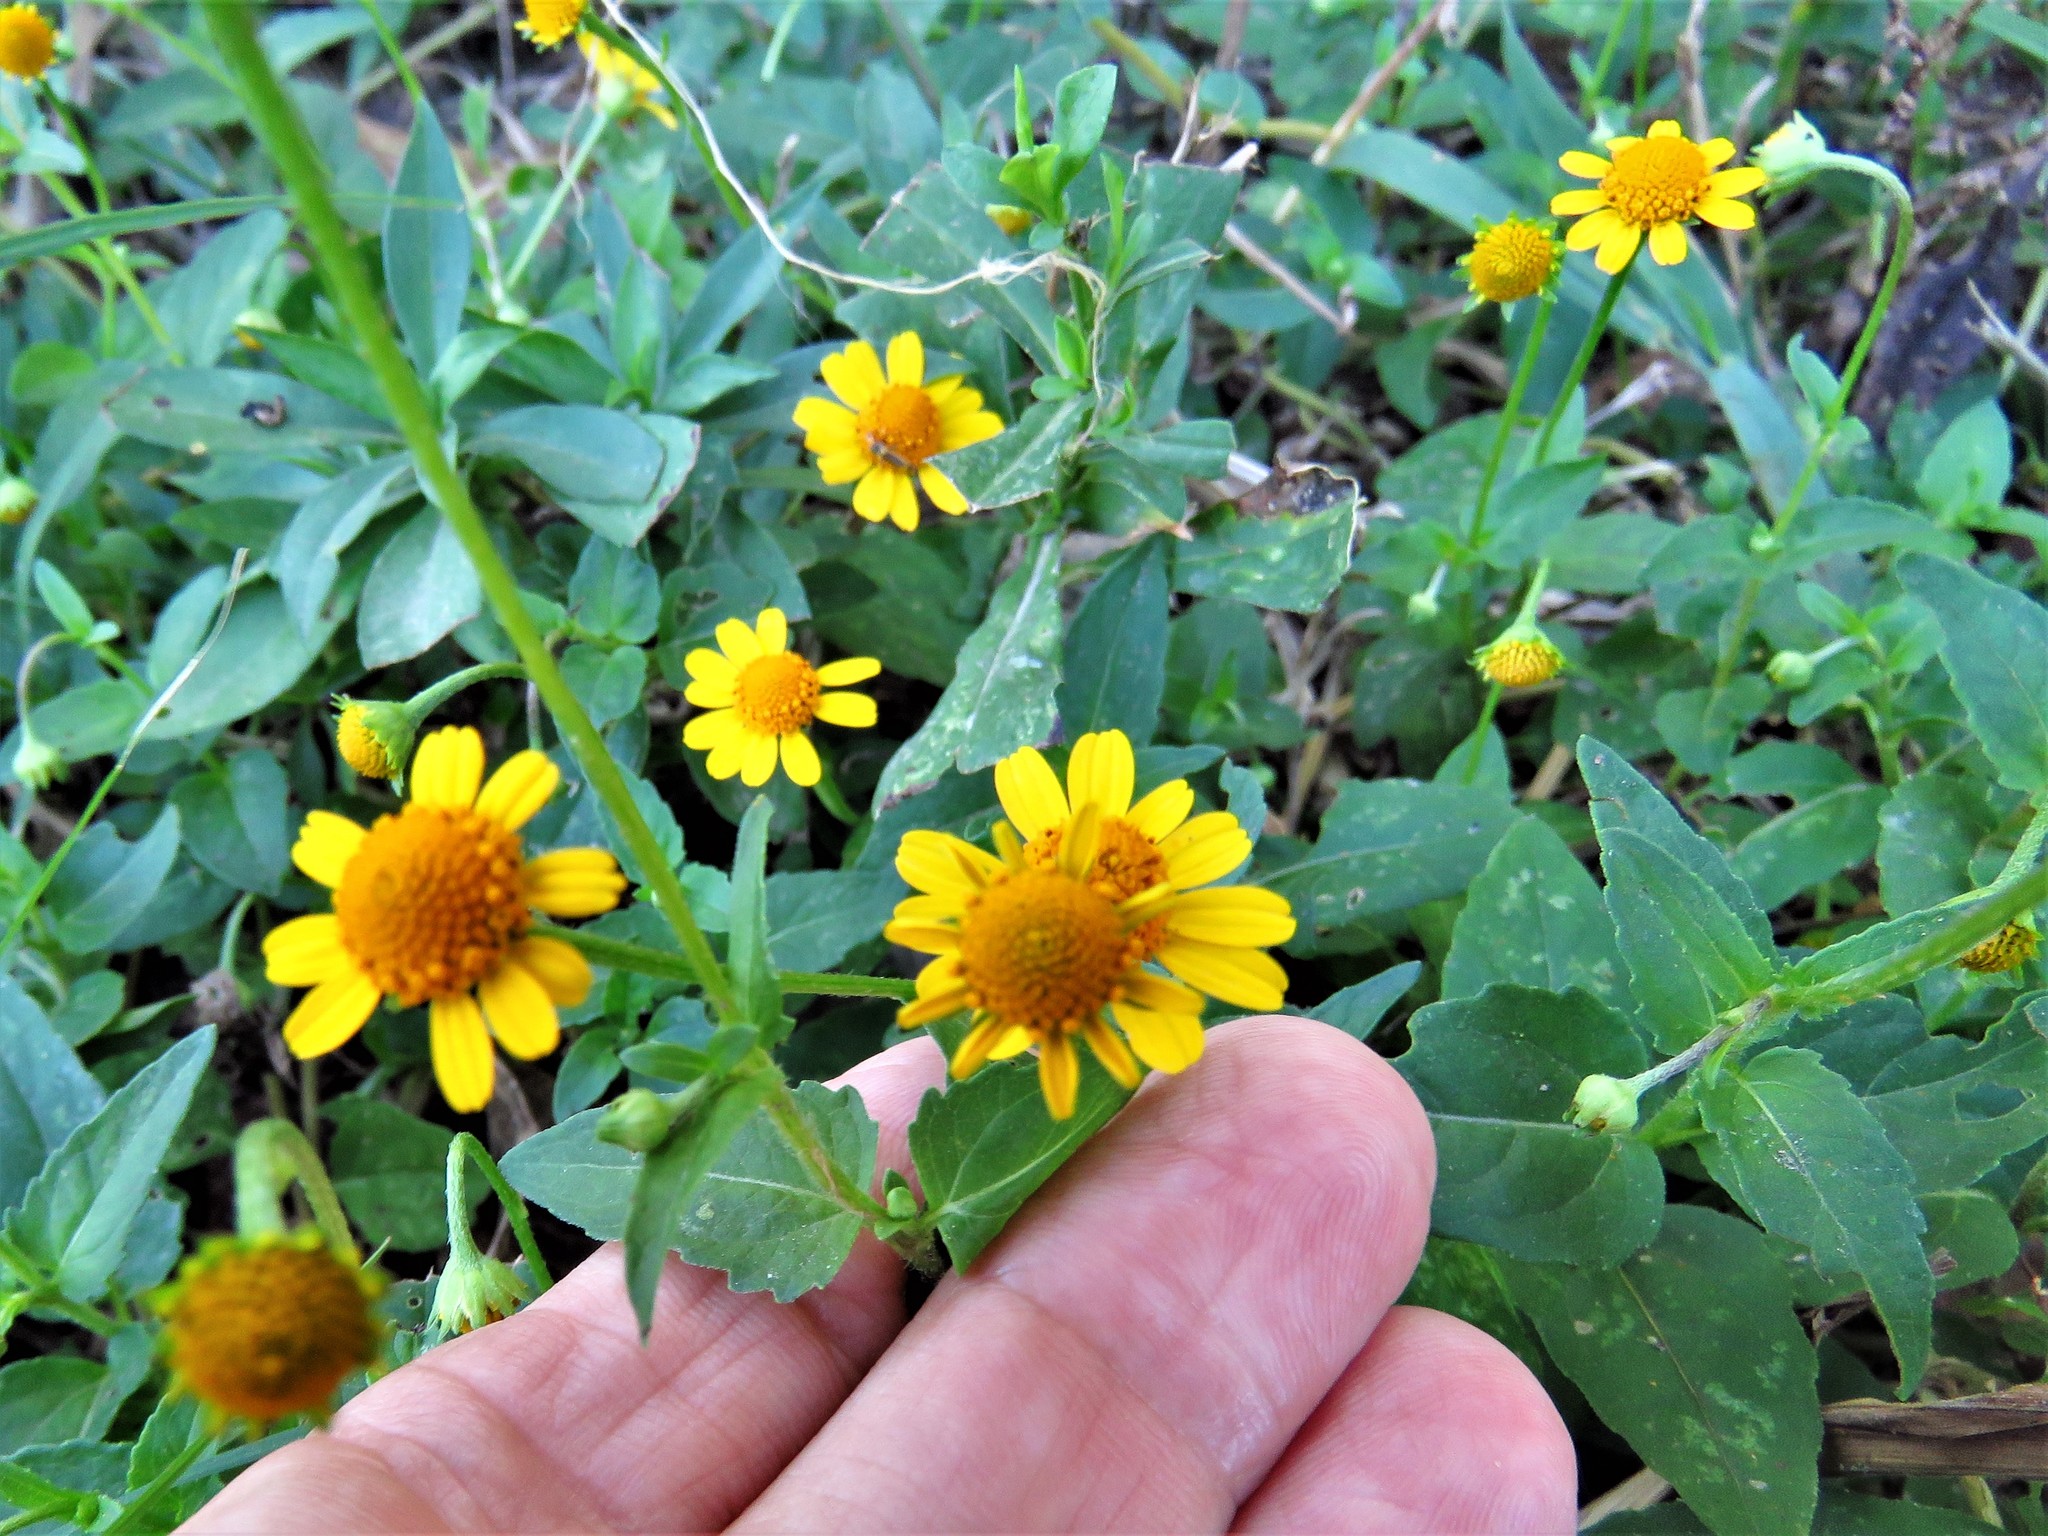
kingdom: Plantae
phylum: Tracheophyta
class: Magnoliopsida
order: Asterales
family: Asteraceae
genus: Acmella
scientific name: Acmella repens
